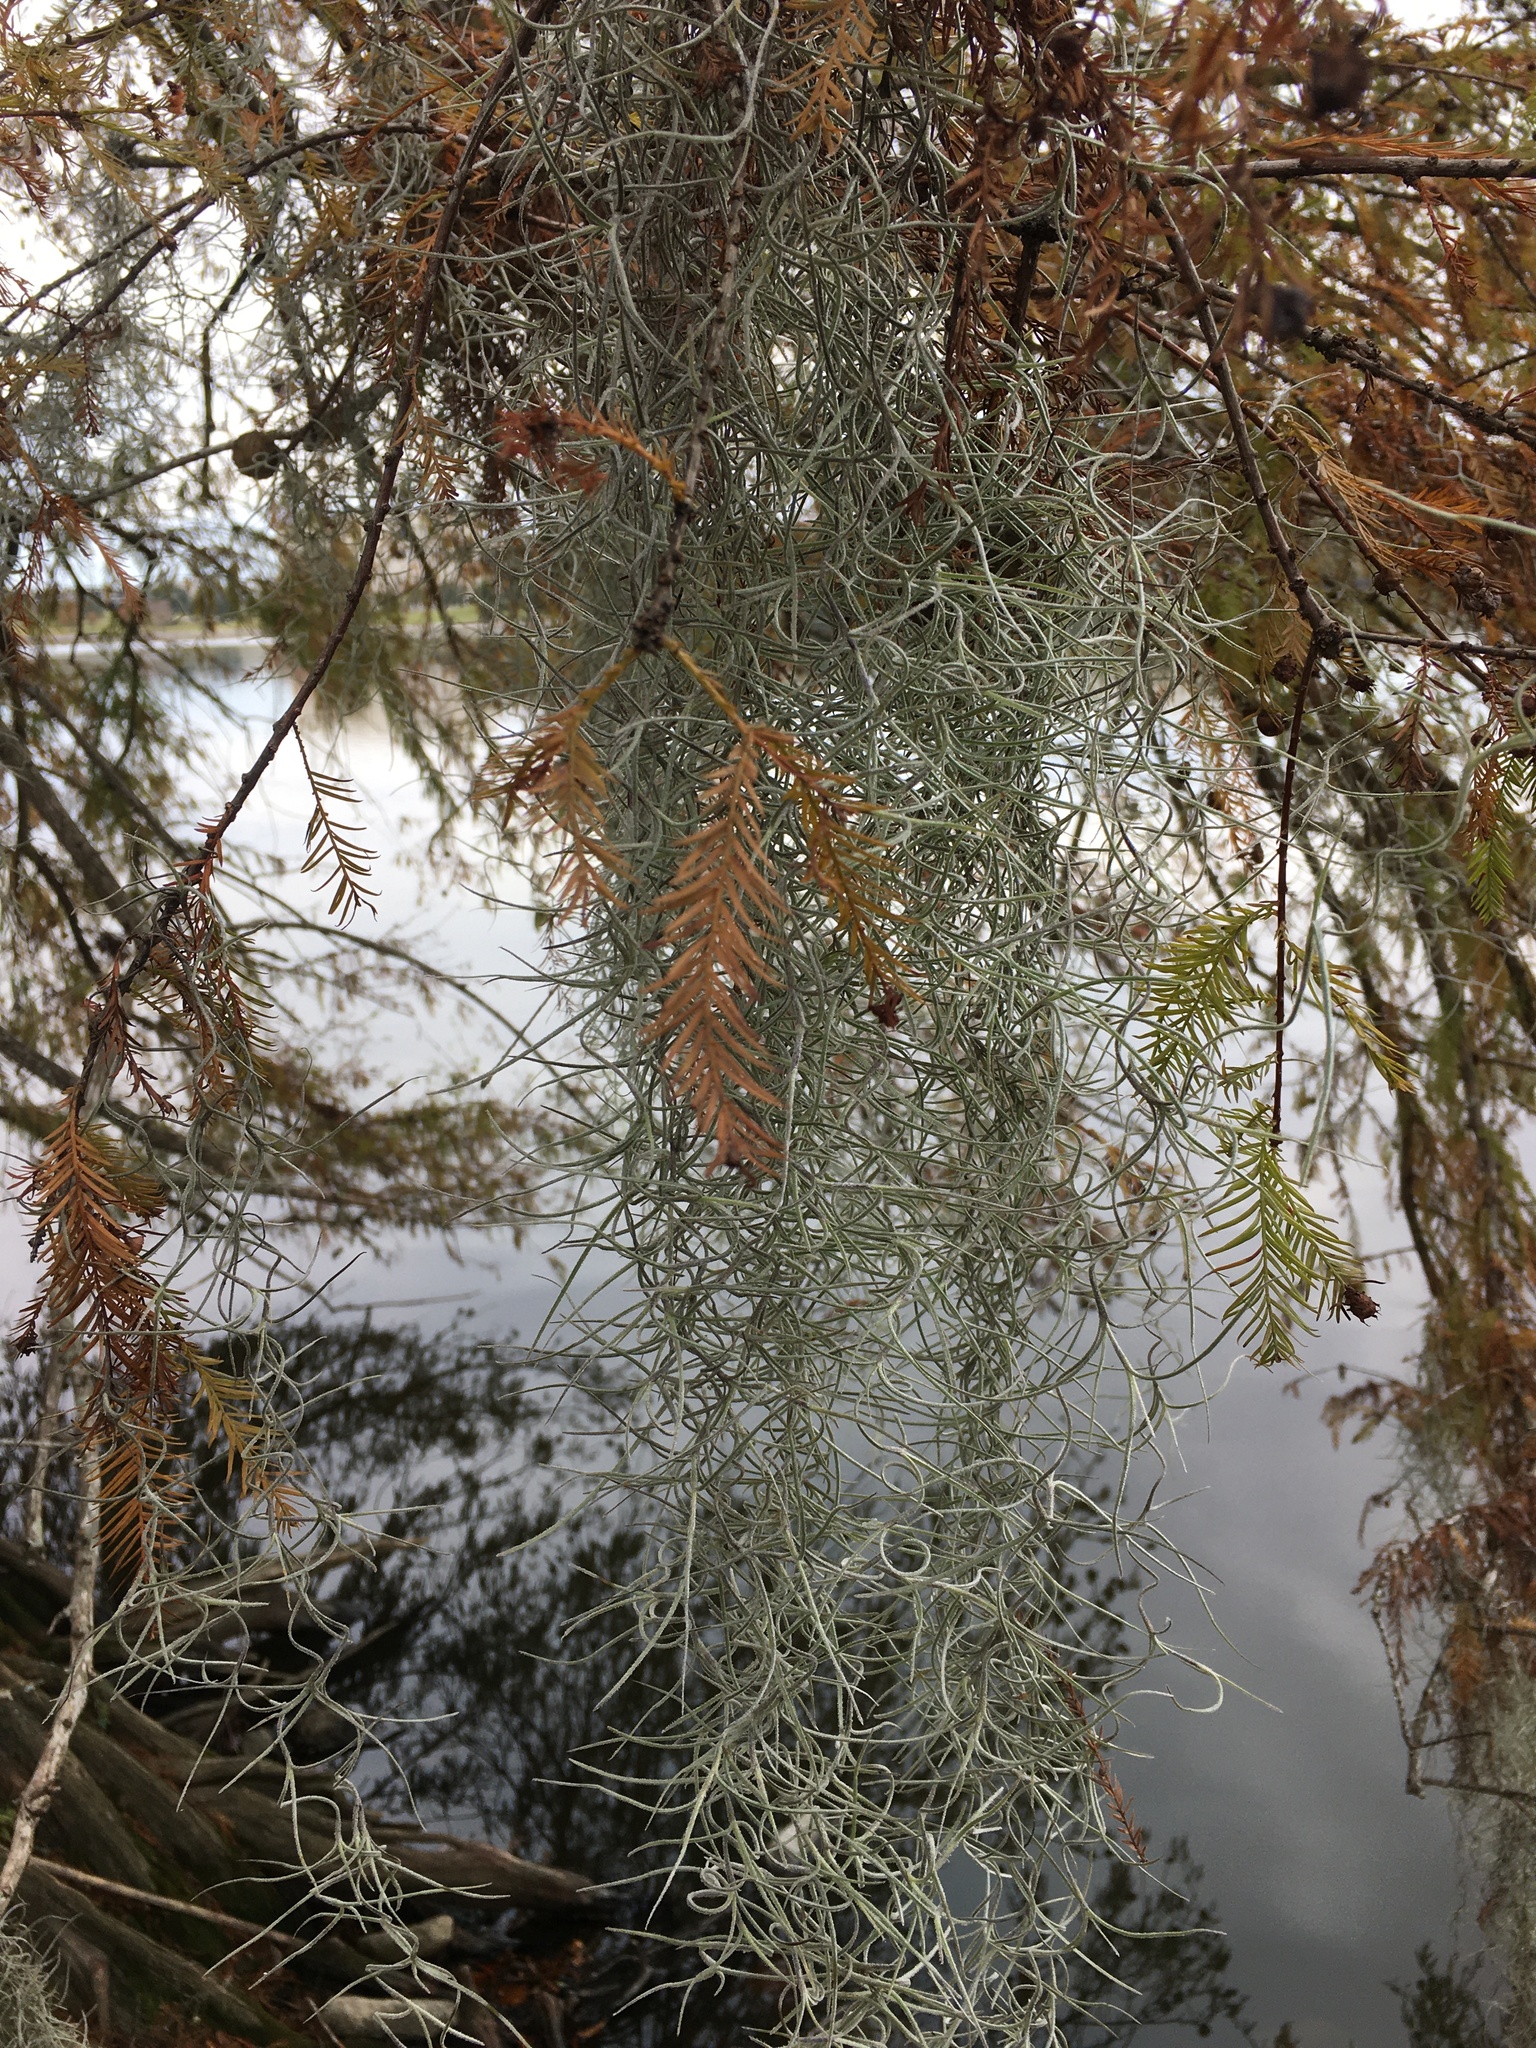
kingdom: Plantae
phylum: Tracheophyta
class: Liliopsida
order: Poales
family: Bromeliaceae
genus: Tillandsia
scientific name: Tillandsia usneoides
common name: Spanish moss
